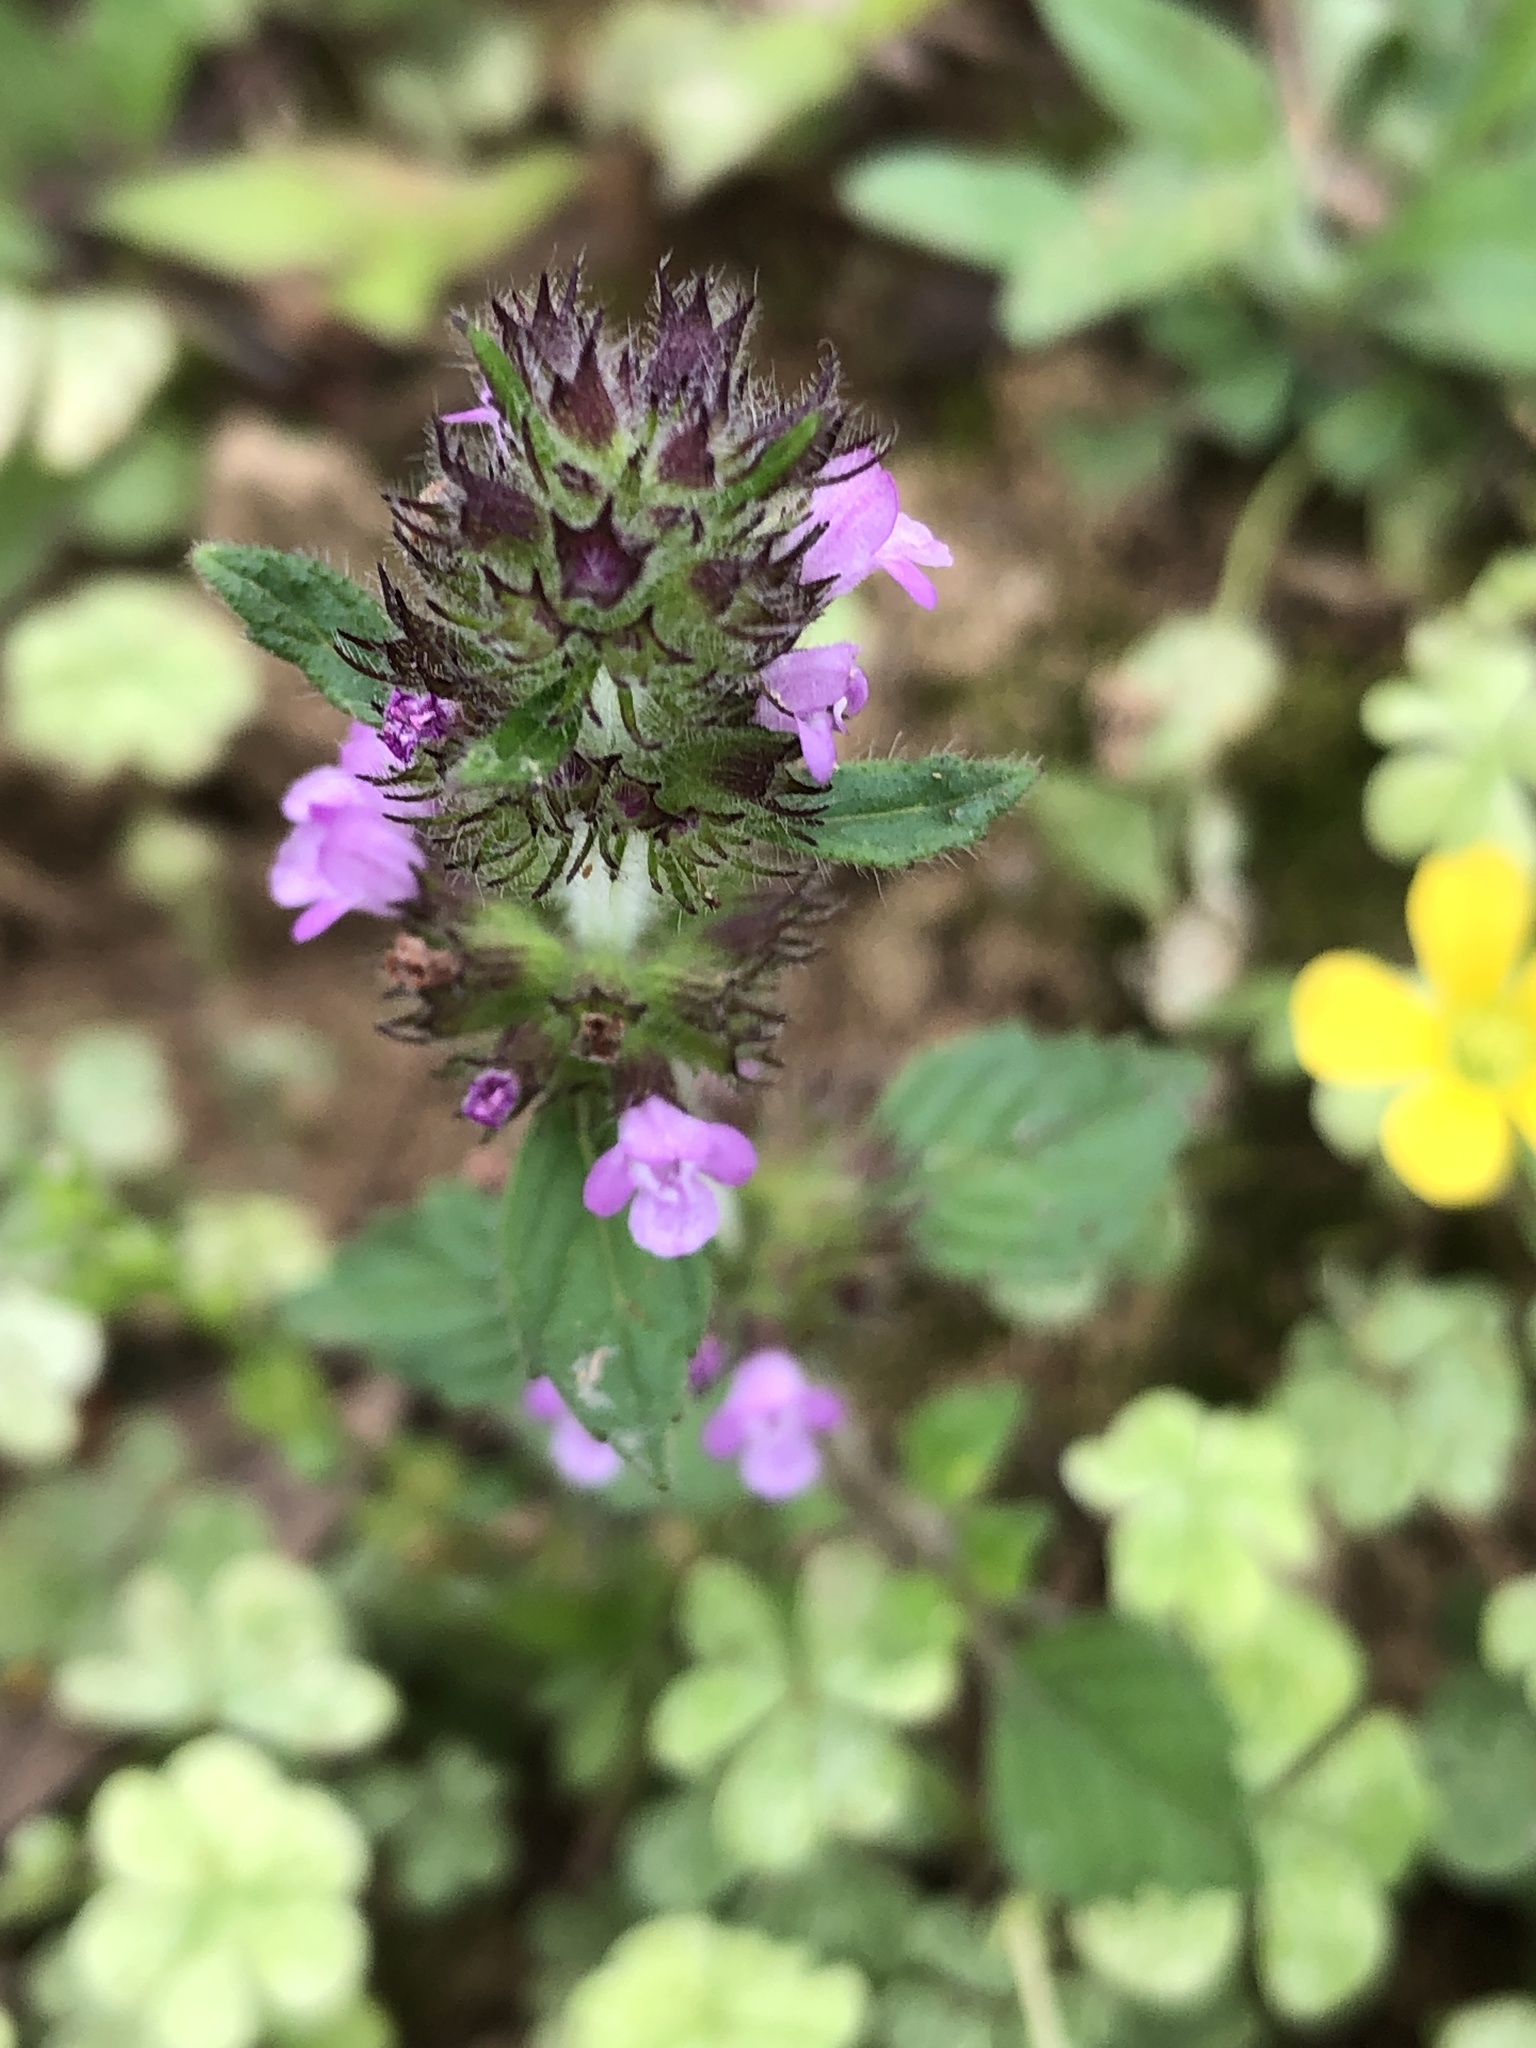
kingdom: Plantae
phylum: Tracheophyta
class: Magnoliopsida
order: Lamiales
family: Lamiaceae
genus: Clinopodium
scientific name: Clinopodium chinense
